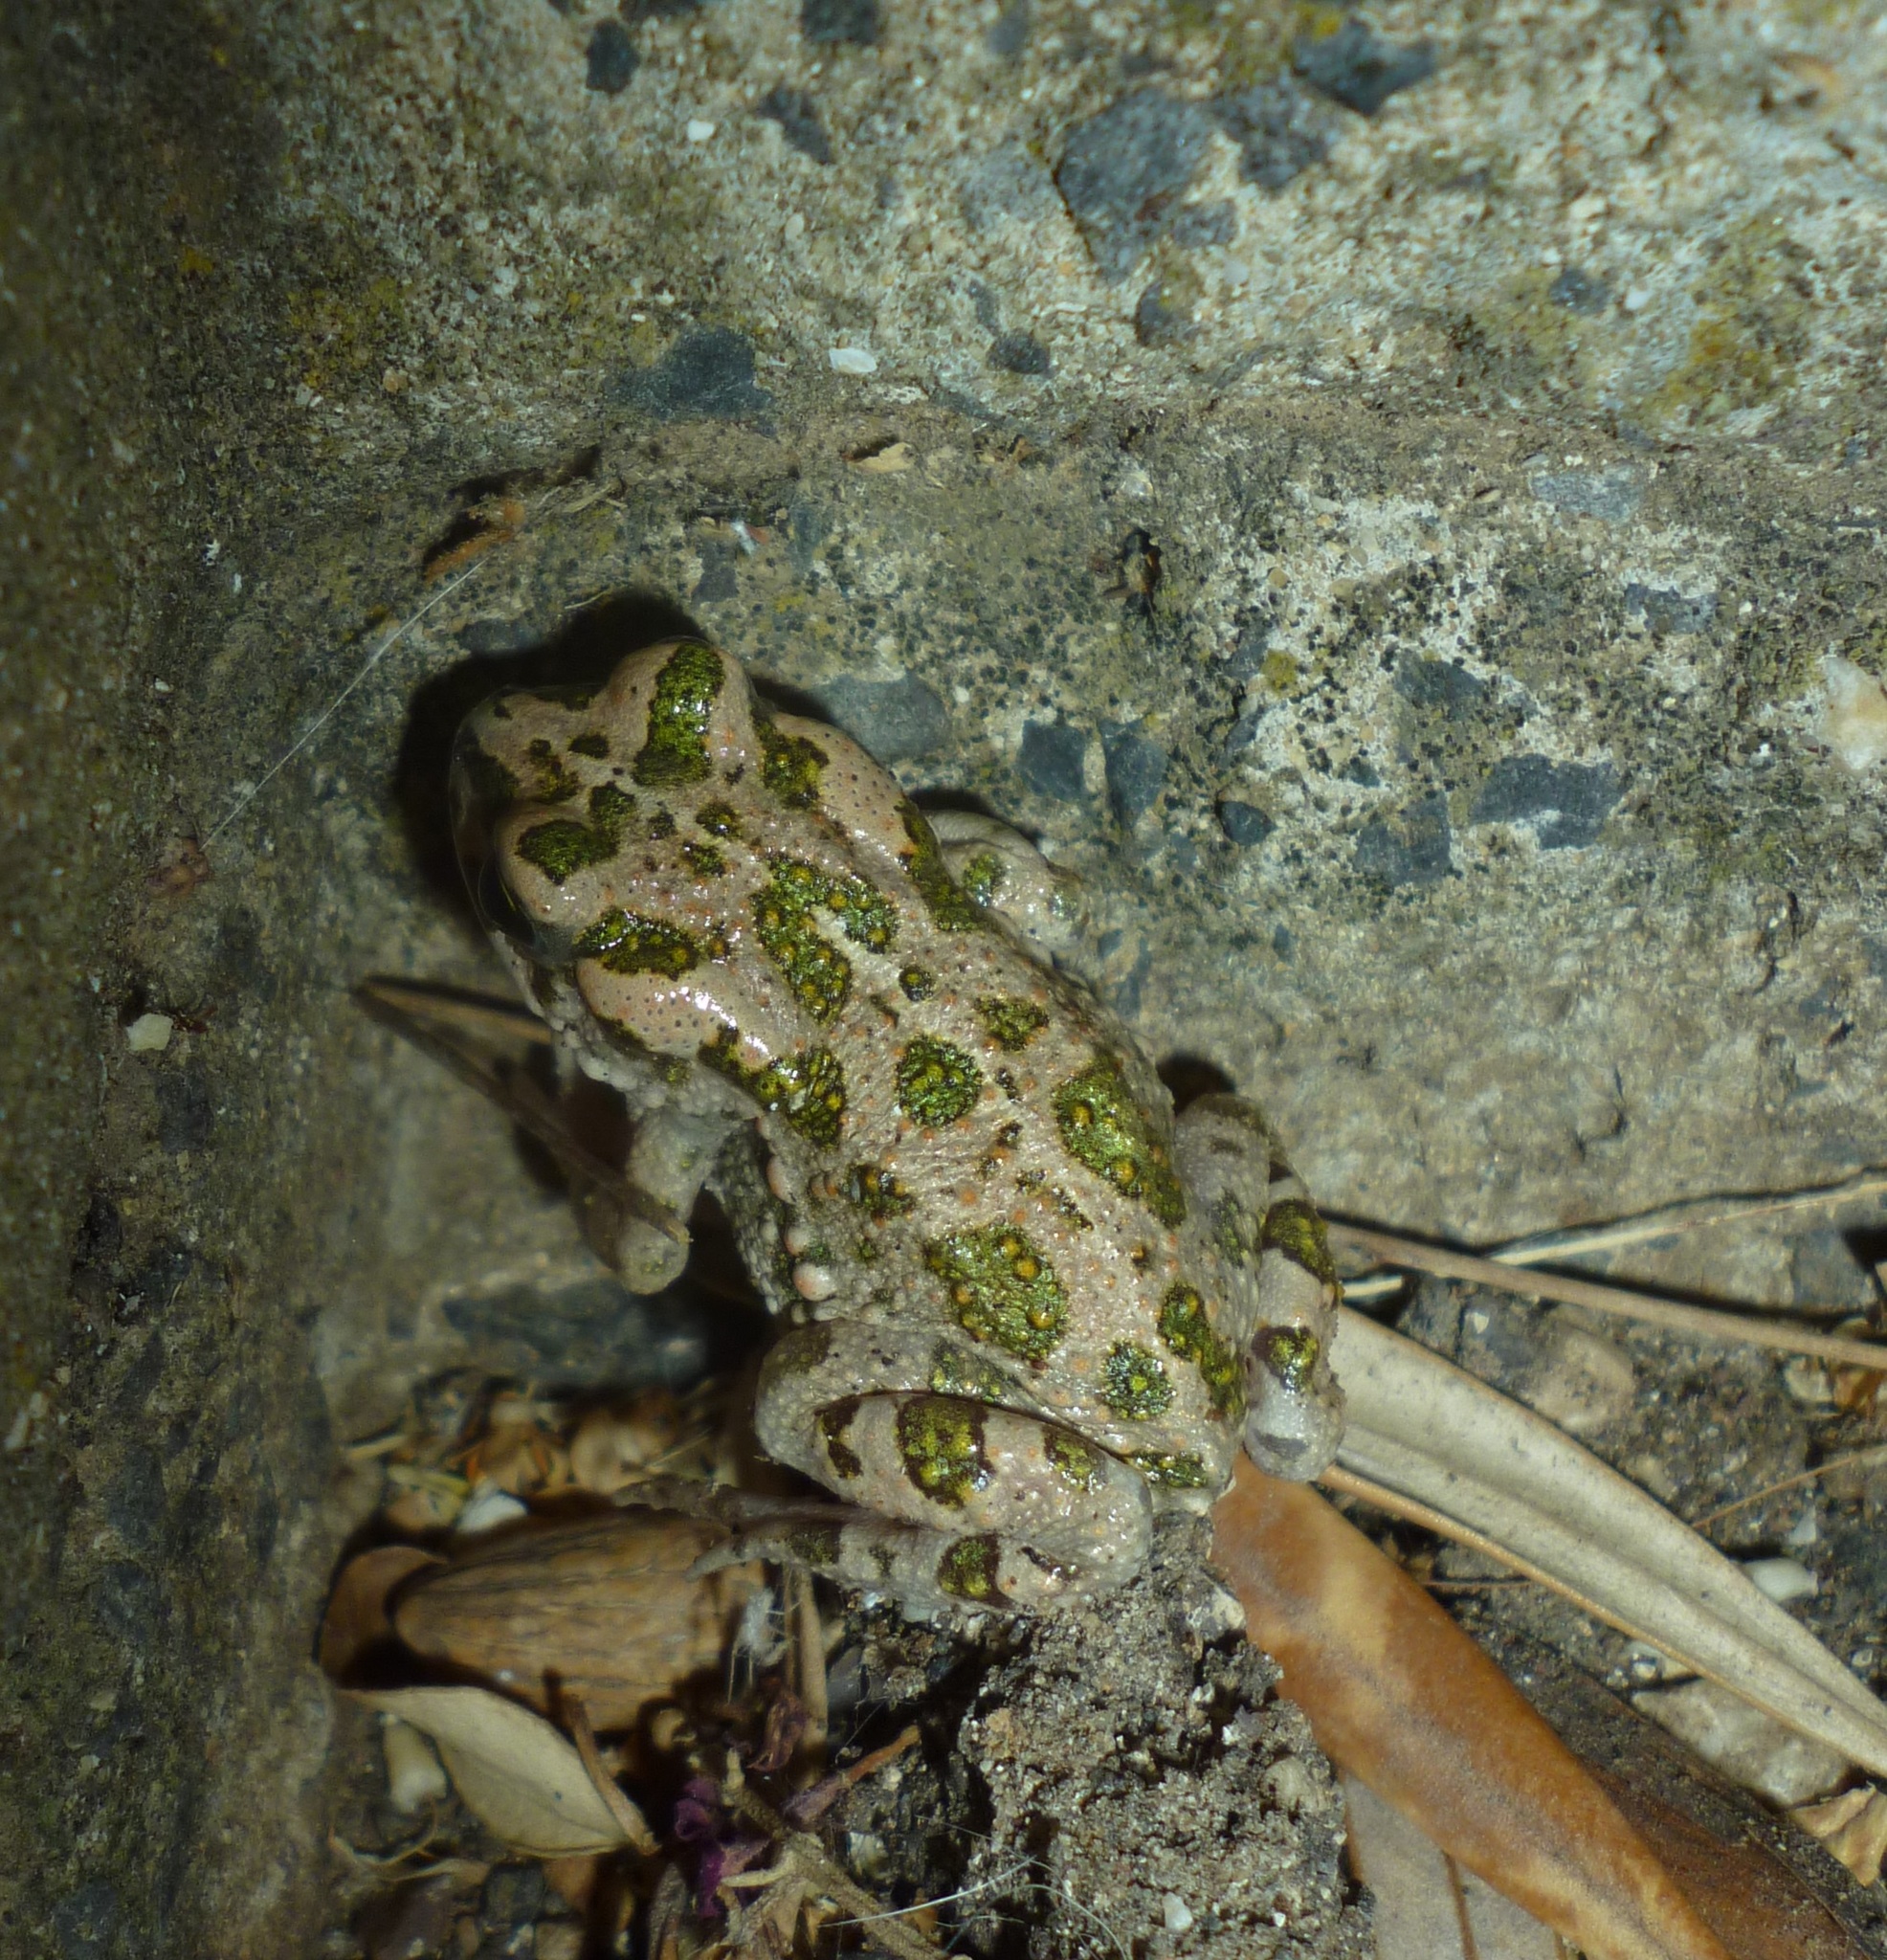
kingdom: Animalia
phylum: Chordata
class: Amphibia
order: Anura
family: Bufonidae
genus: Bufotes
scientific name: Bufotes viridis
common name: European green toad
